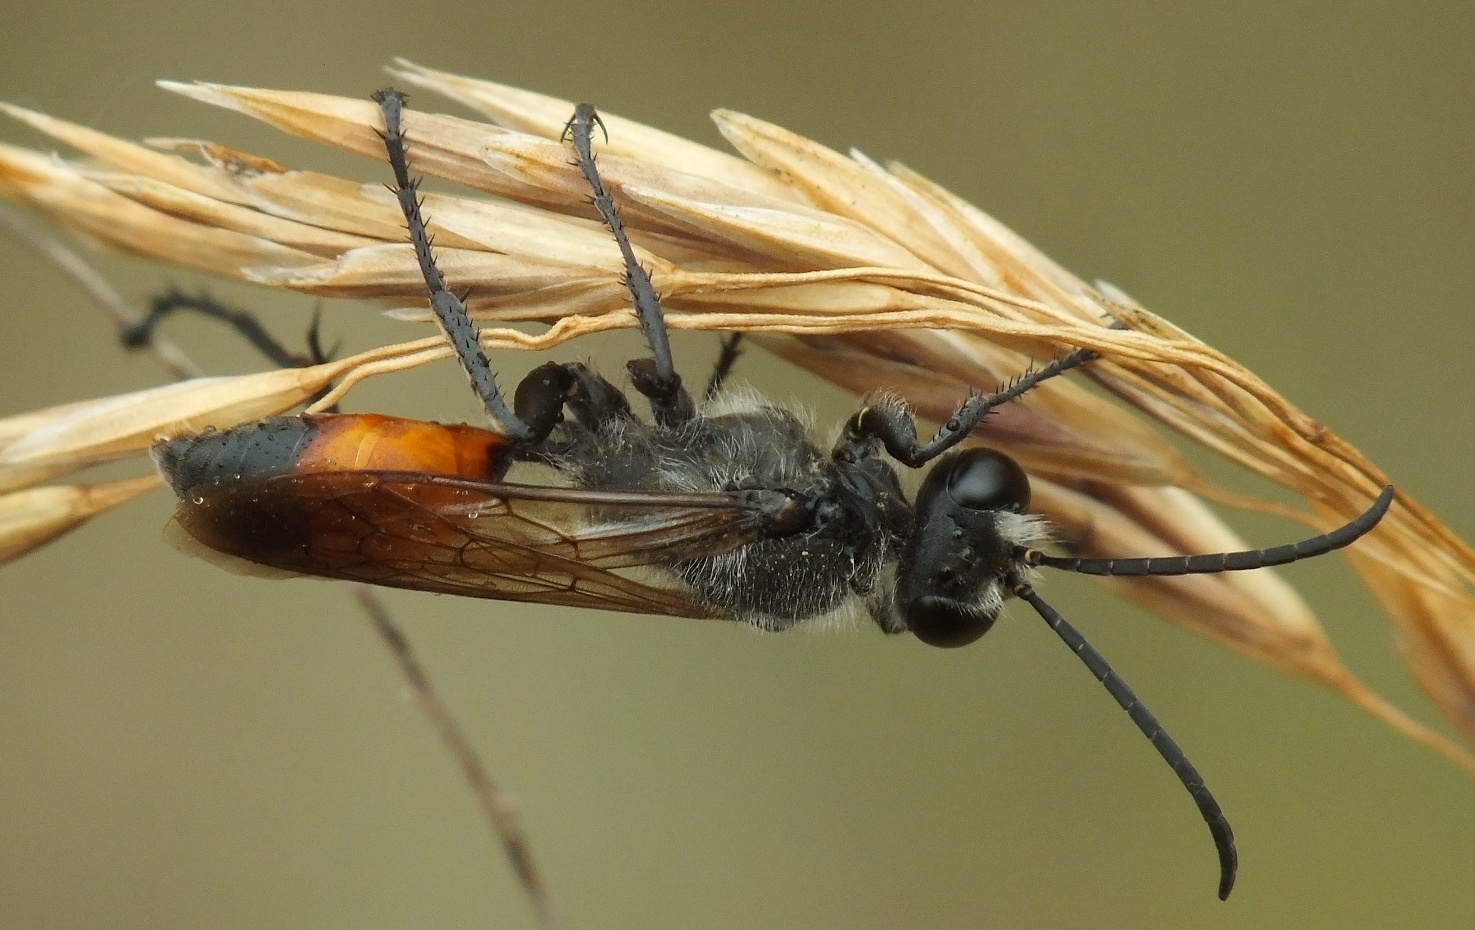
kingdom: Animalia
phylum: Arthropoda
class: Insecta
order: Hymenoptera
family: Sphecidae
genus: Sphex
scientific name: Sphex
